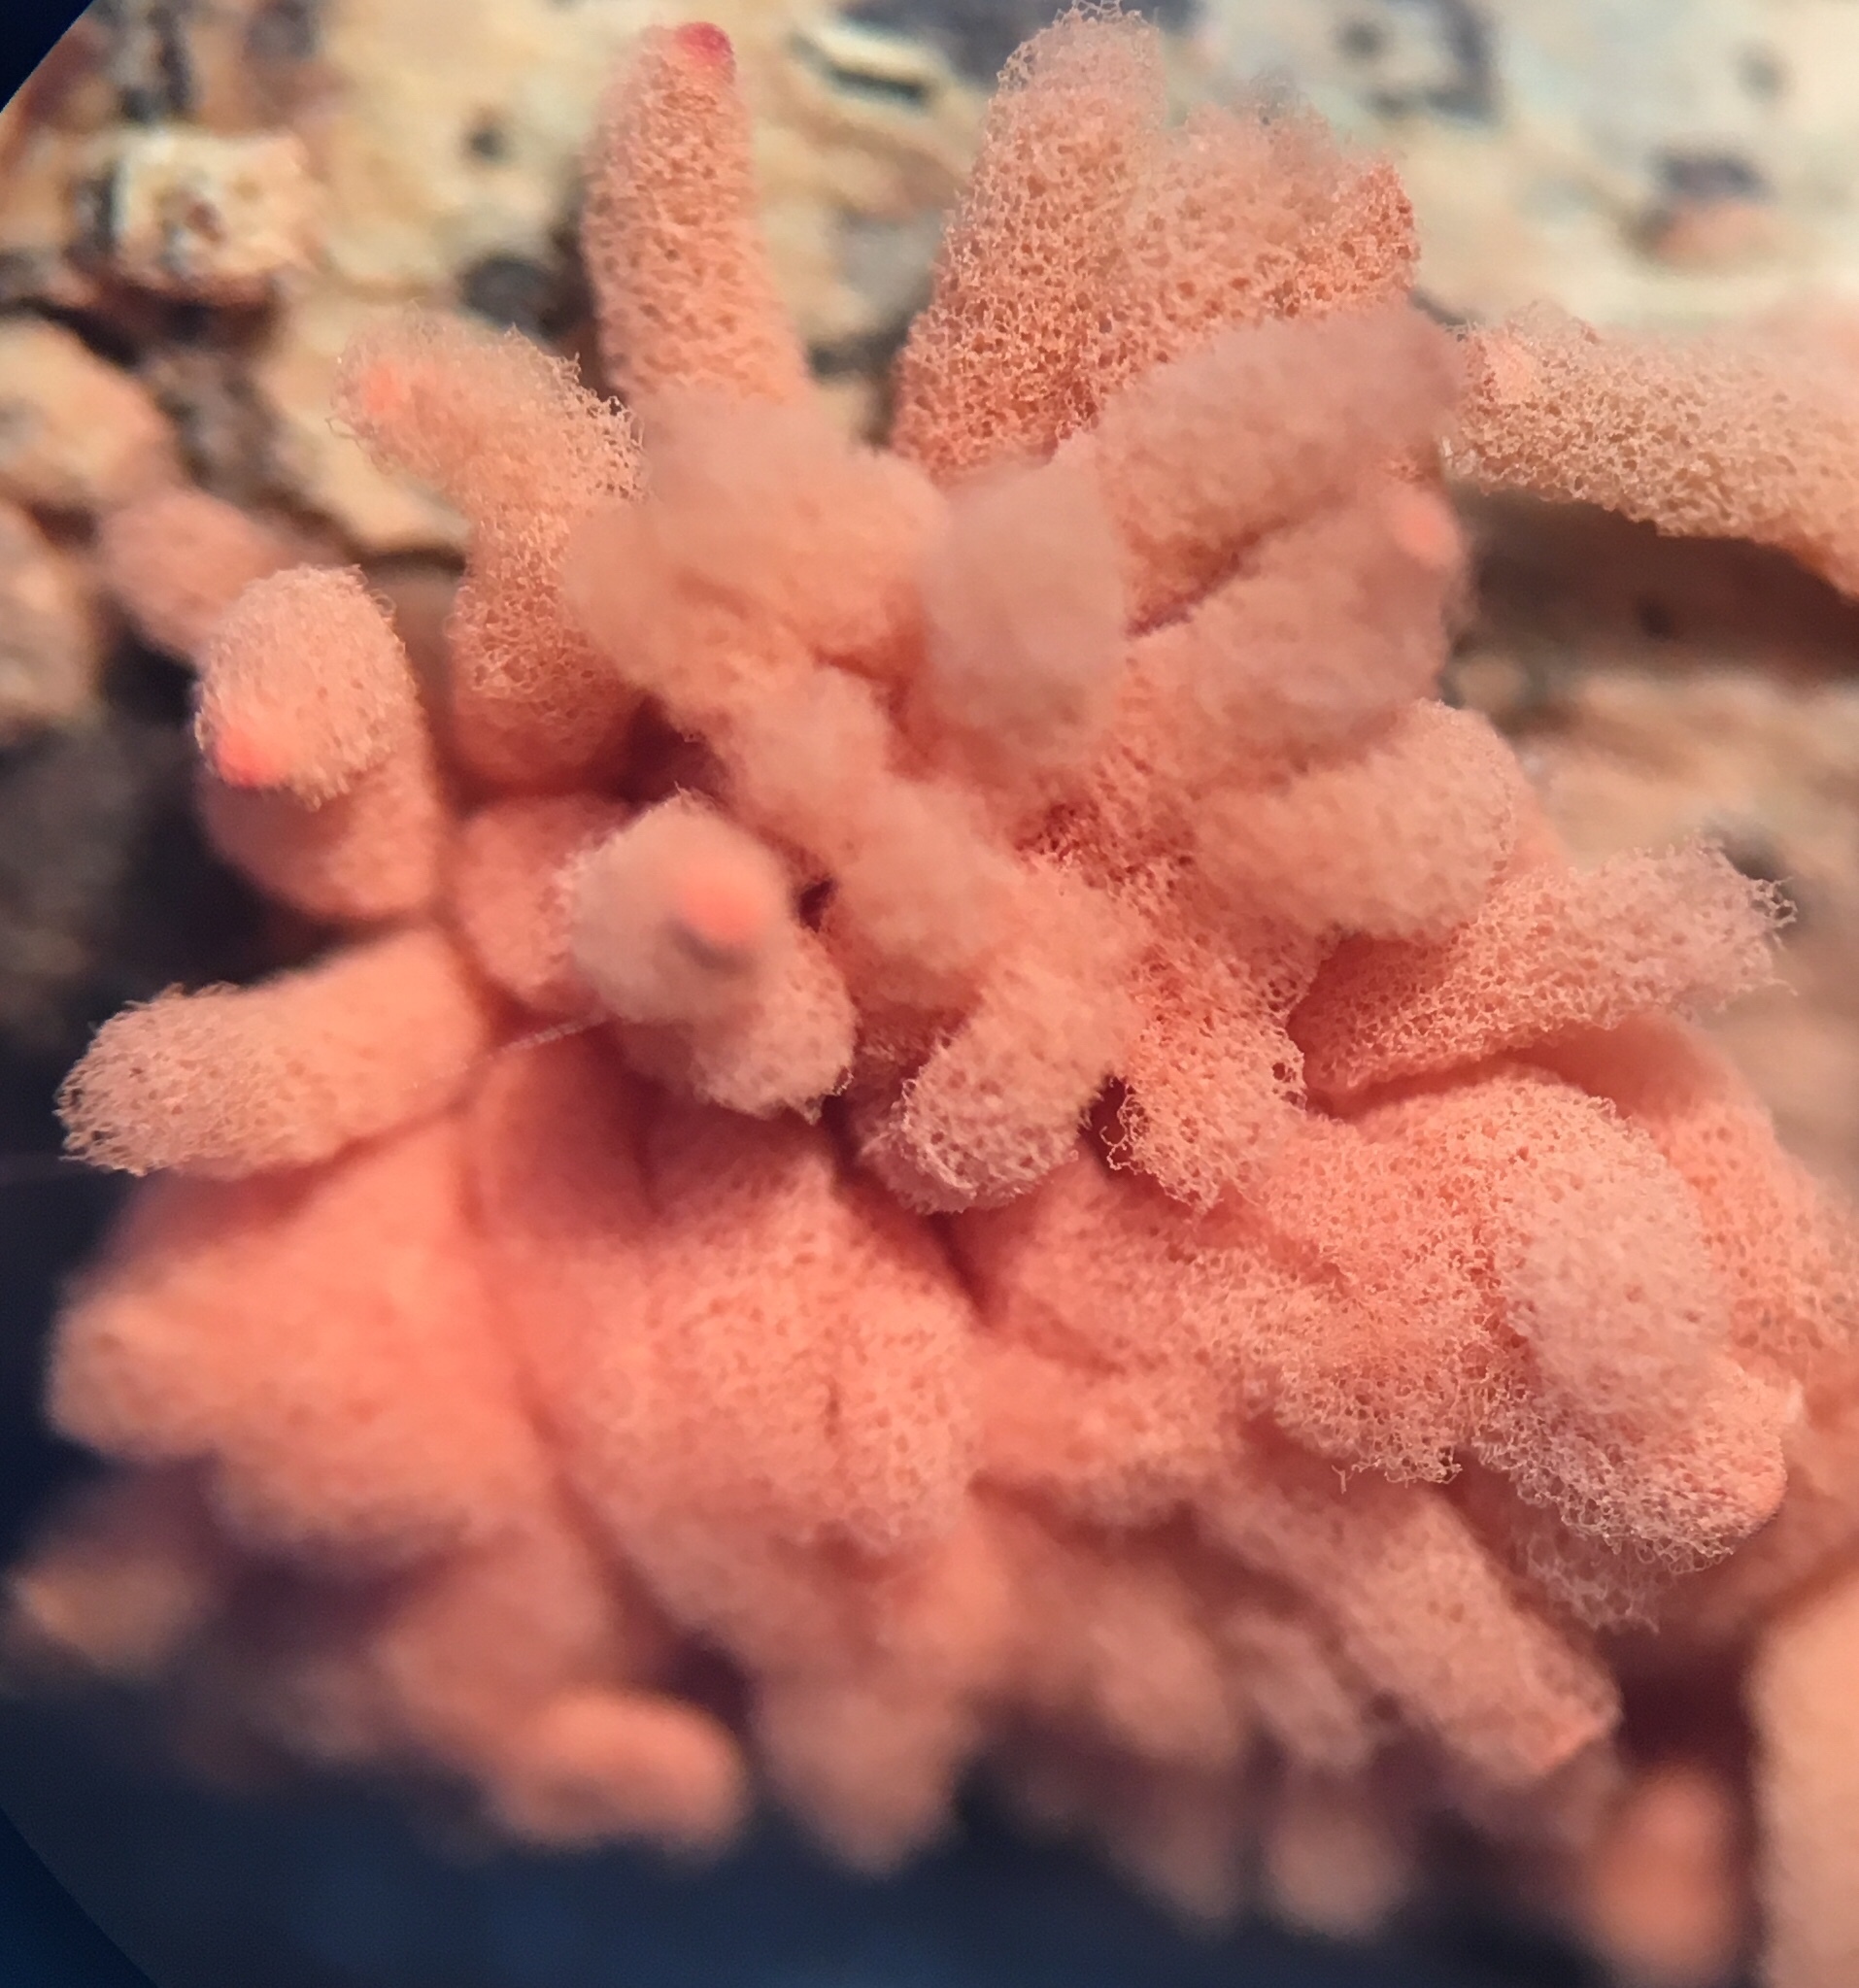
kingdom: Protozoa
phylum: Mycetozoa
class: Myxomycetes
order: Trichiales
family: Arcyriaceae
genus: Arcyria
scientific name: Arcyria denudata
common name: Carnival candy slime mold
